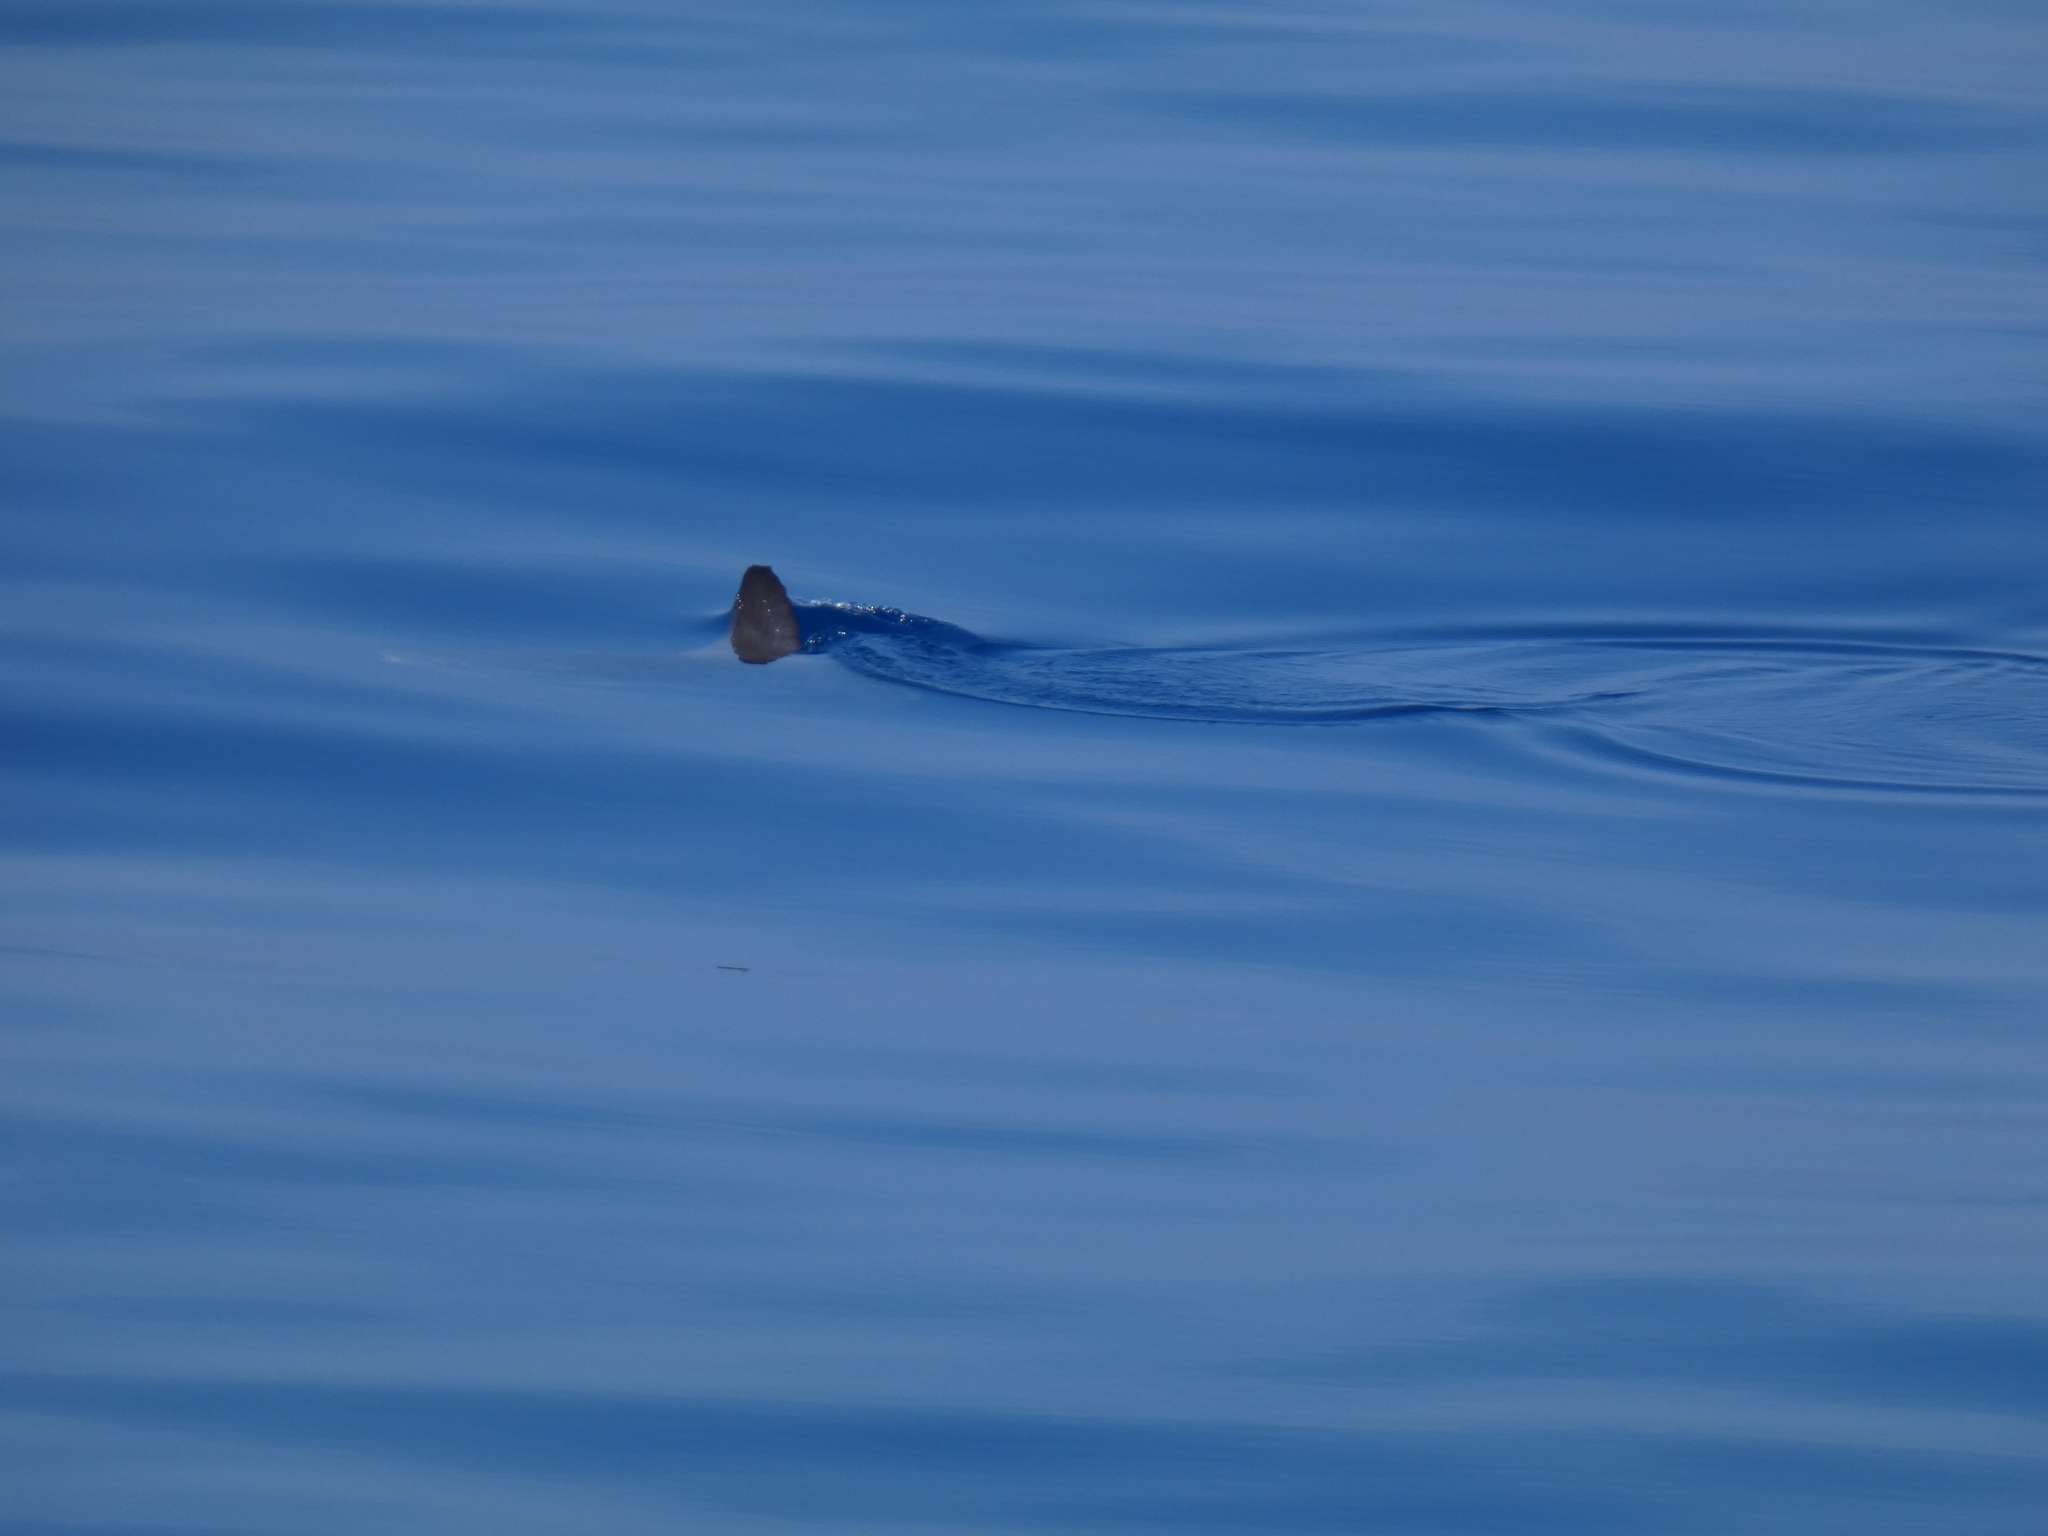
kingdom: Animalia
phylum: Chordata
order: Tetraodontiformes
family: Molidae
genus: Mola
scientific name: Mola mola
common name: Ocean sunfish
